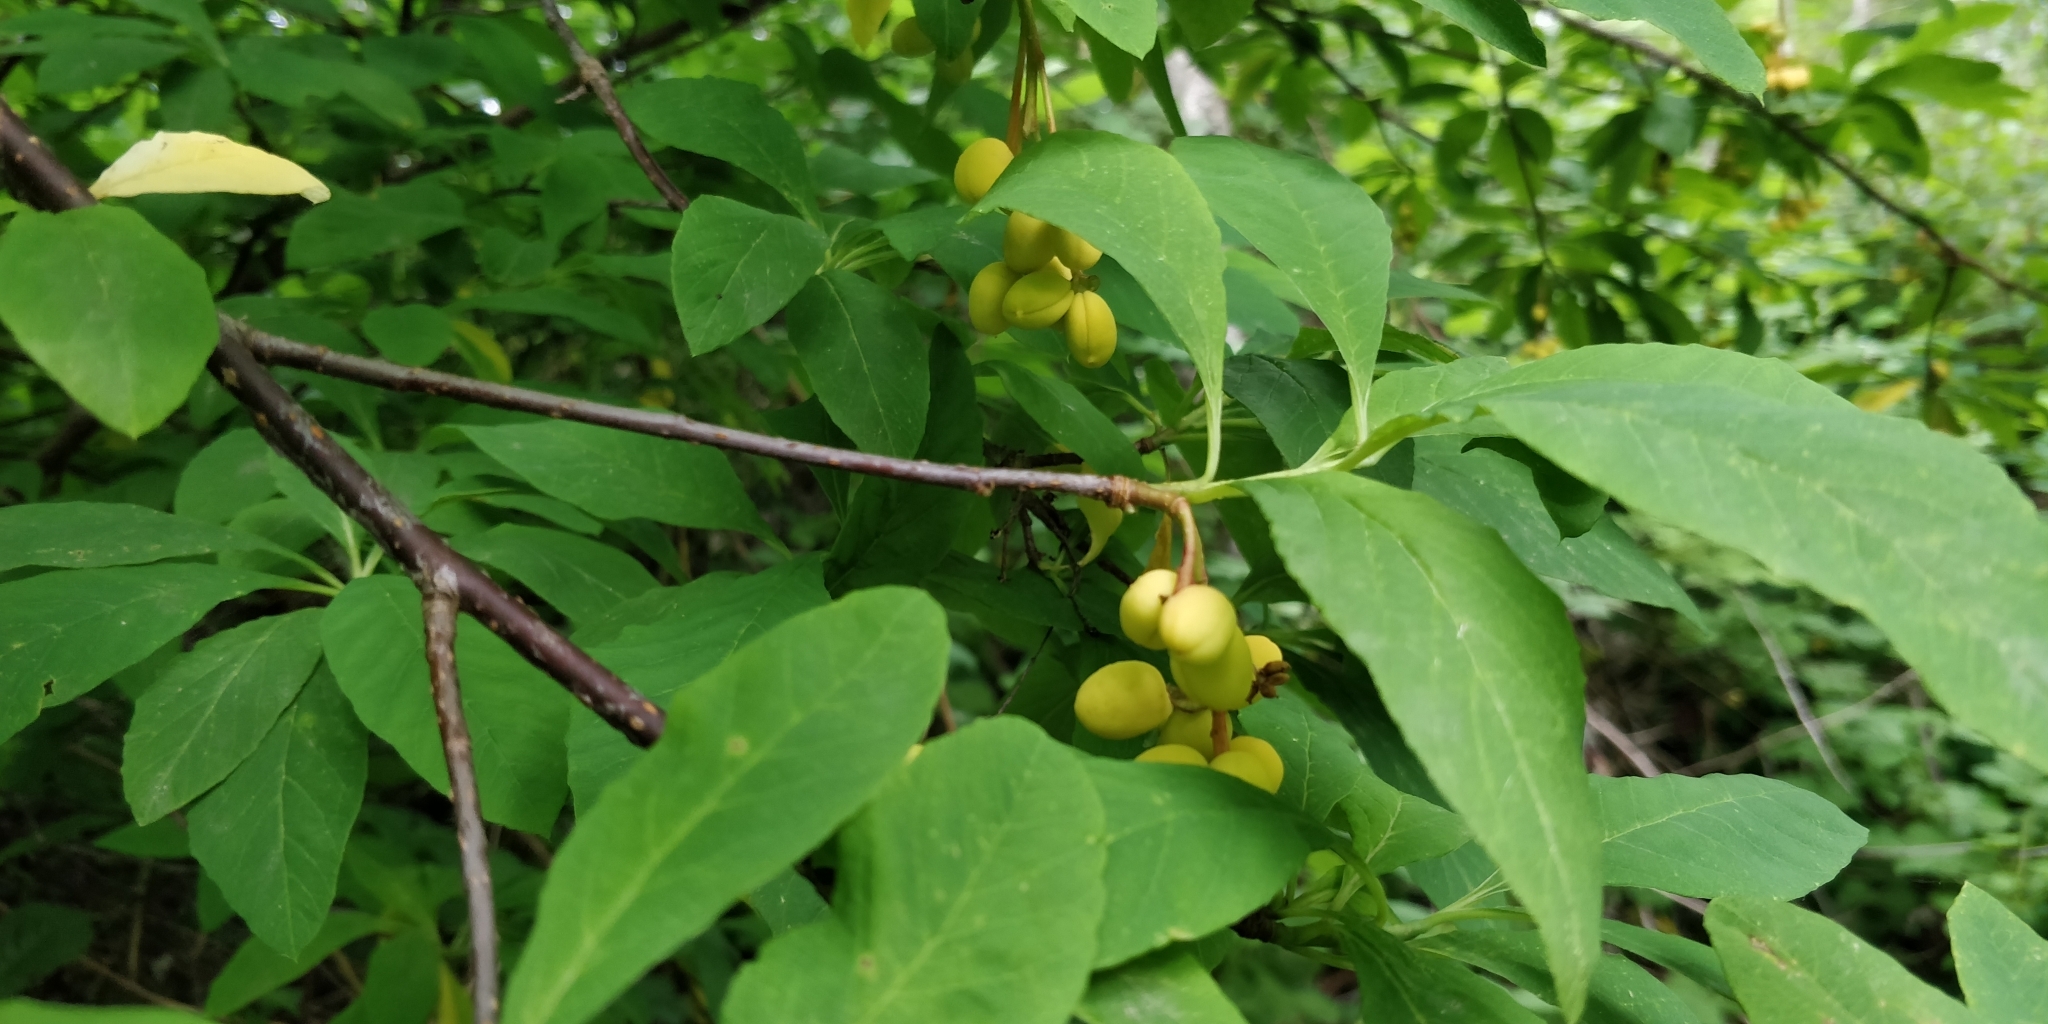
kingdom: Plantae
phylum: Tracheophyta
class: Magnoliopsida
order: Rosales
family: Rosaceae
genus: Oemleria
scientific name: Oemleria cerasiformis
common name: Osoberry
